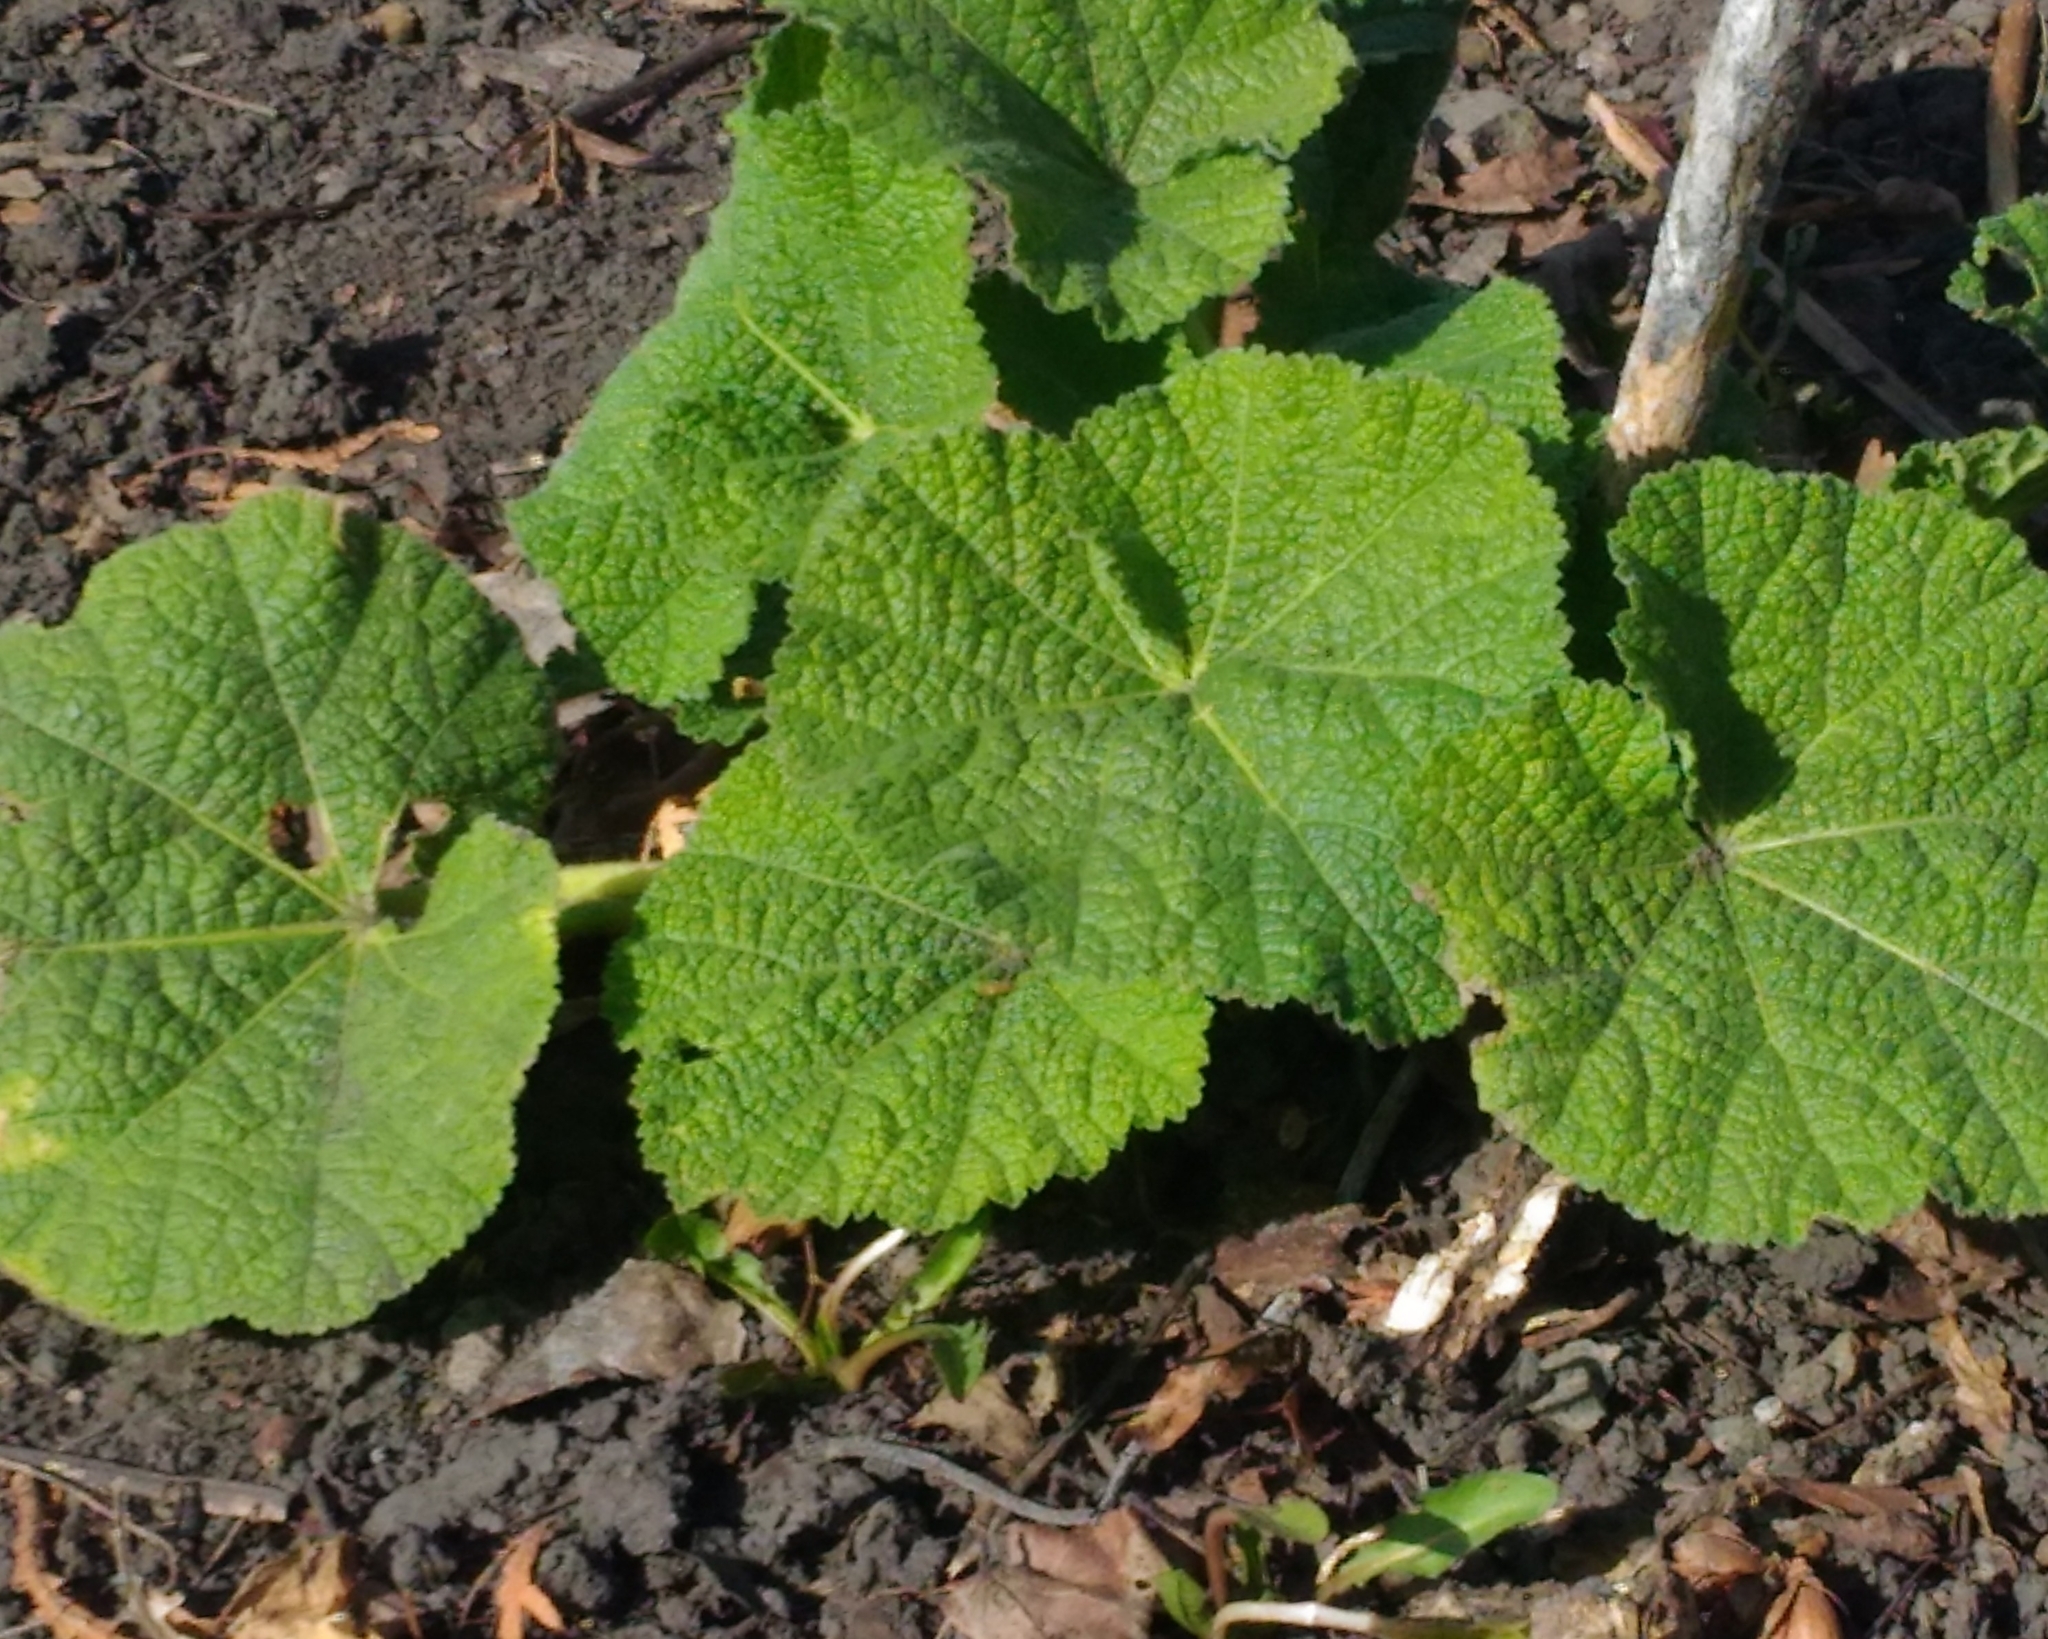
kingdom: Plantae
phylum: Tracheophyta
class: Magnoliopsida
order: Malvales
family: Malvaceae
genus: Alcea
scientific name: Alcea rosea
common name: Hollyhock
